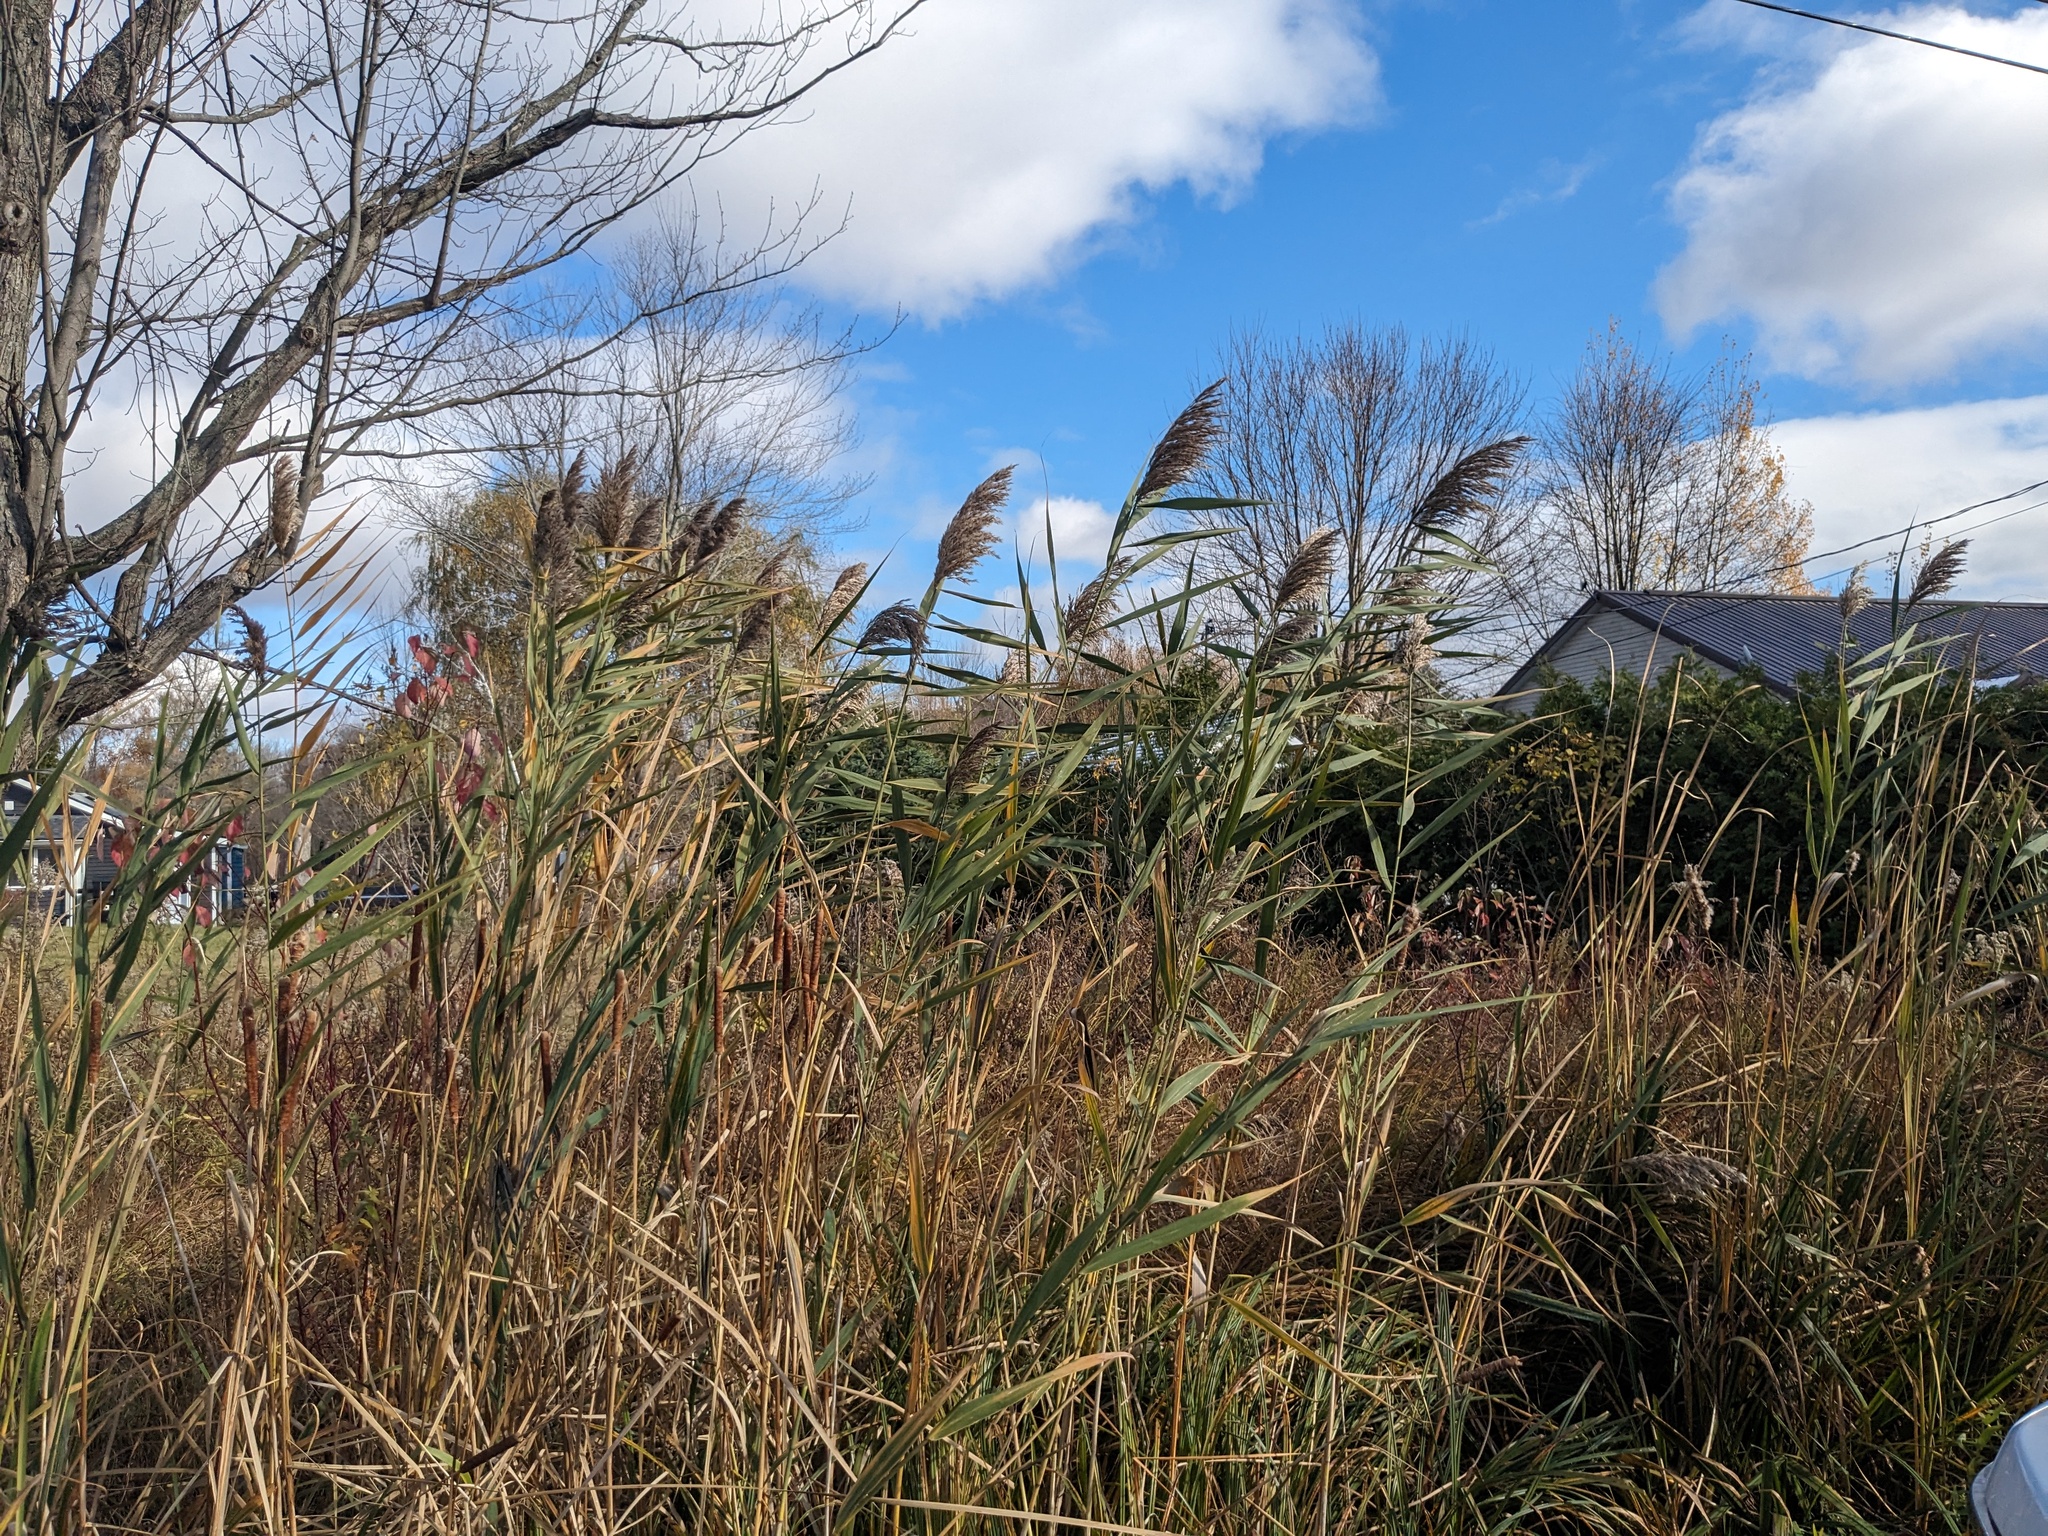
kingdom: Plantae
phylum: Tracheophyta
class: Liliopsida
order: Poales
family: Poaceae
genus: Phragmites
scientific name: Phragmites australis
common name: Common reed
